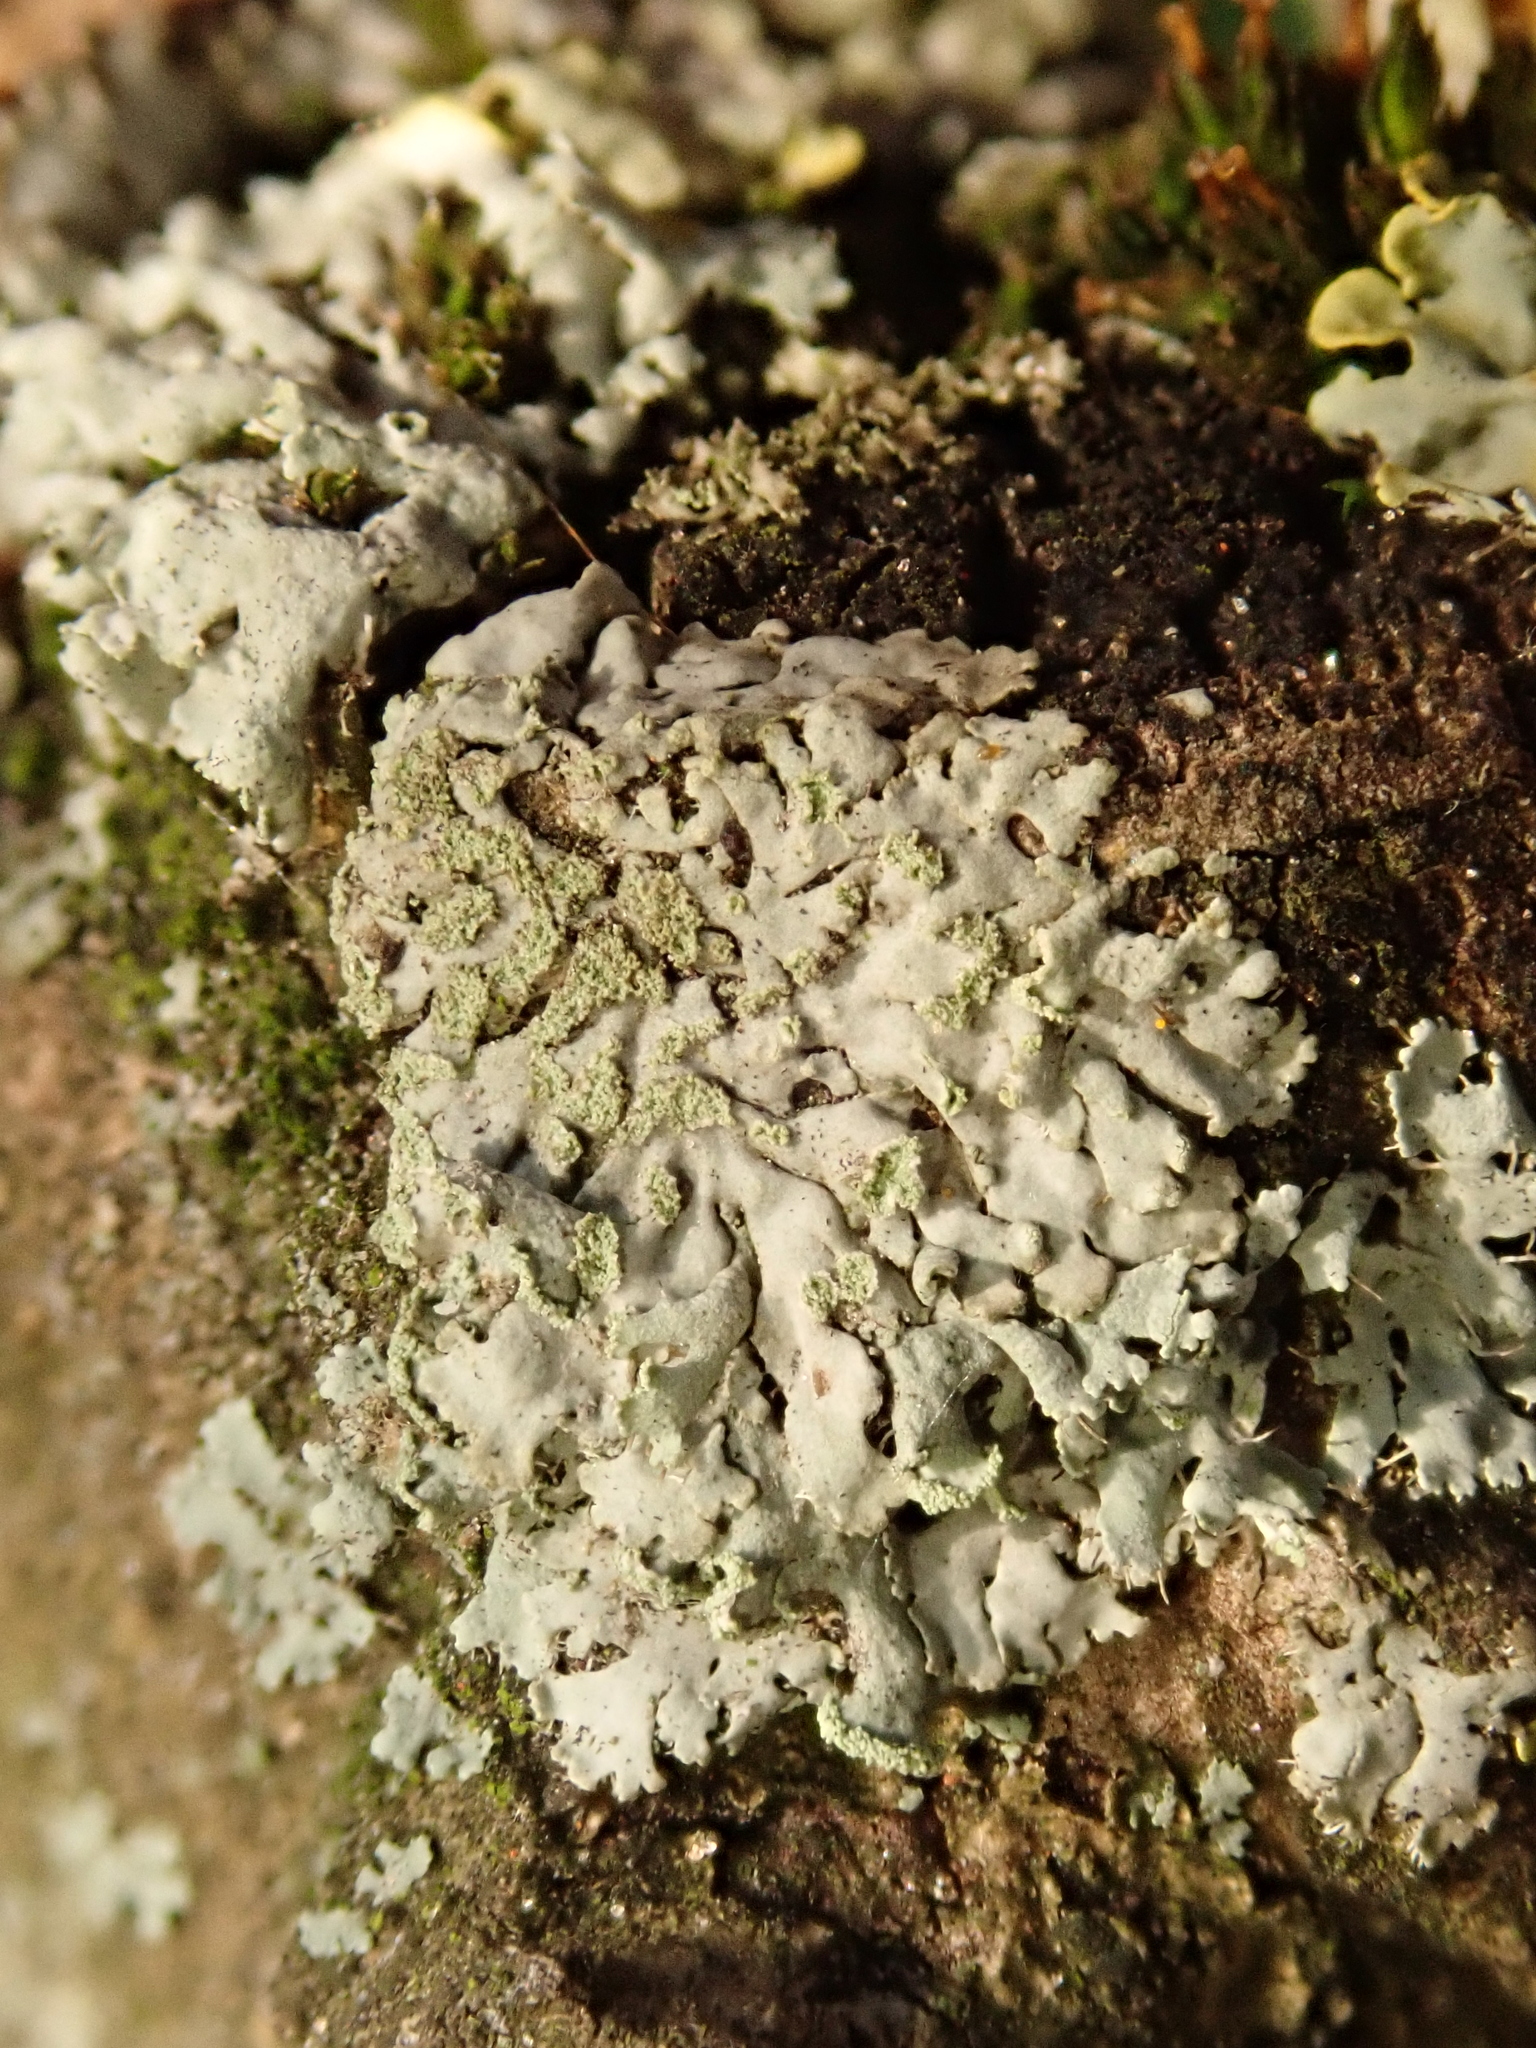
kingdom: Fungi
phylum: Ascomycota
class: Lecanoromycetes
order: Caliciales
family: Physciaceae
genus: Phaeophyscia
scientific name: Phaeophyscia orbicularis
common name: Mealy shadow lichen
